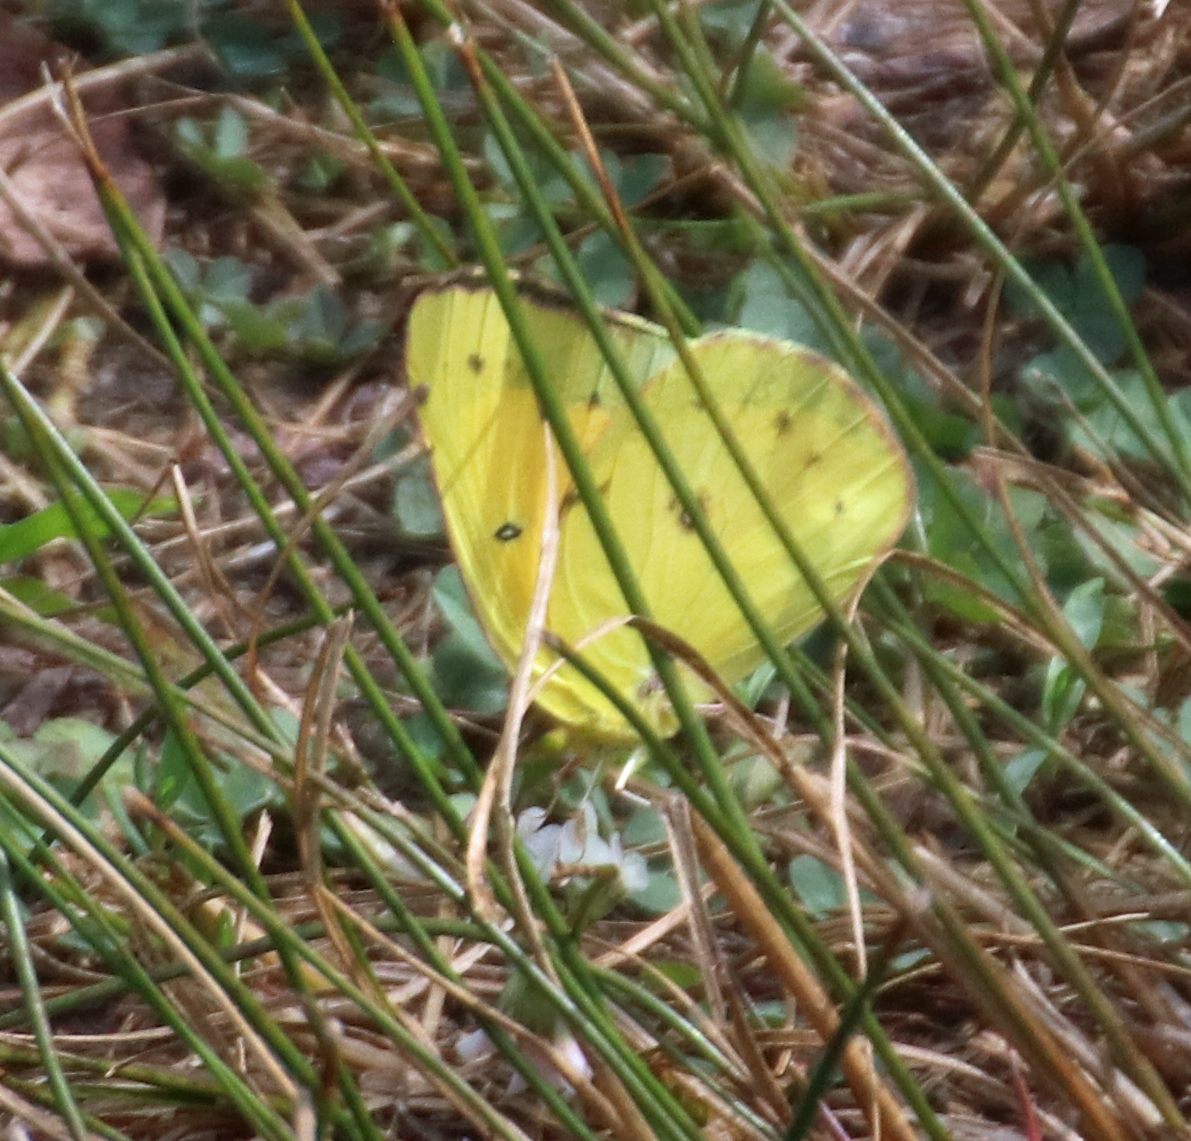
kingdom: Animalia
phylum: Arthropoda
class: Insecta
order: Lepidoptera
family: Pieridae
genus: Colias
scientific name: Colias eurytheme
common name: Alfalfa butterfly
